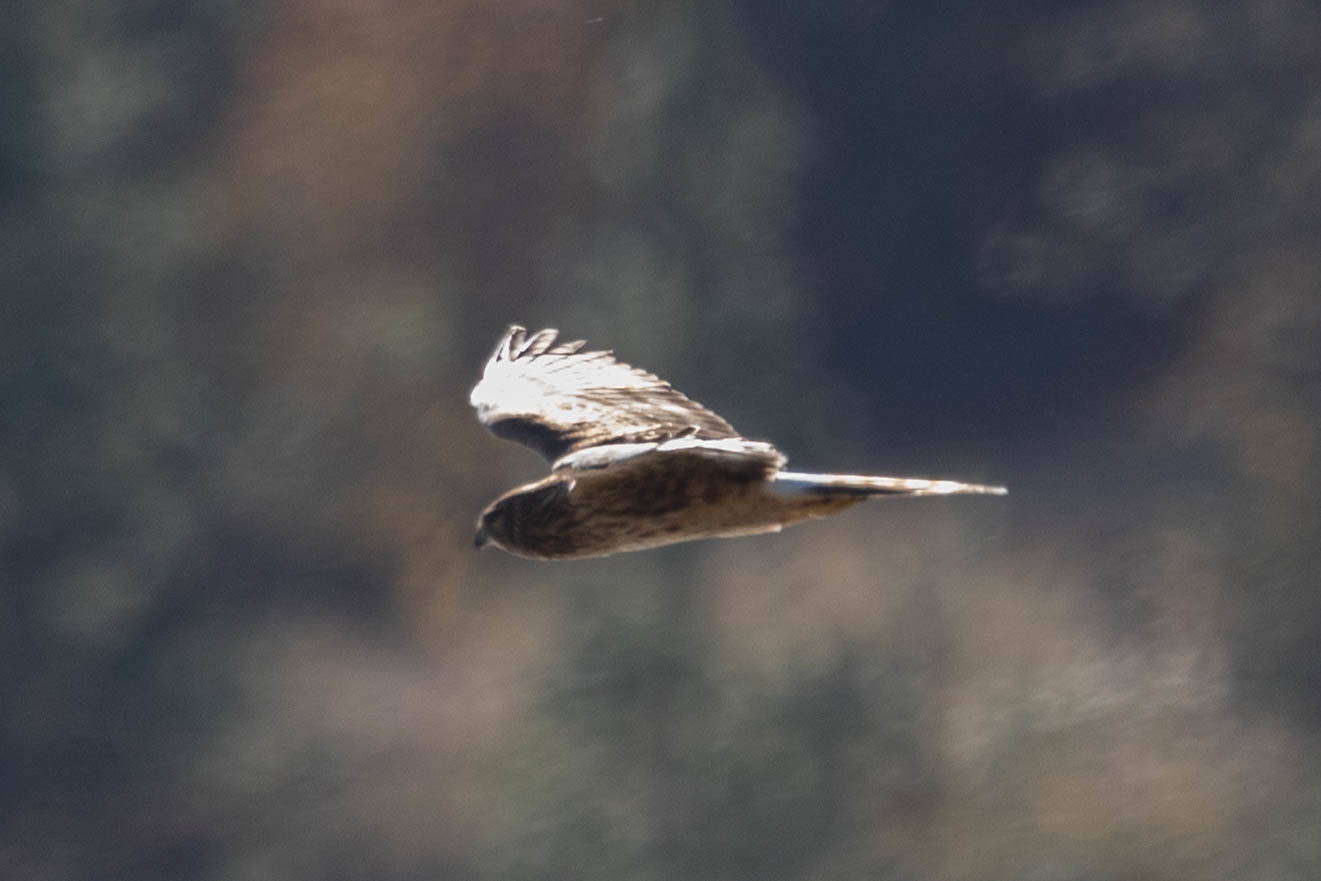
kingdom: Animalia
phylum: Chordata
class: Aves
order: Accipitriformes
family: Accipitridae
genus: Circus
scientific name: Circus cyaneus
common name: Hen harrier
